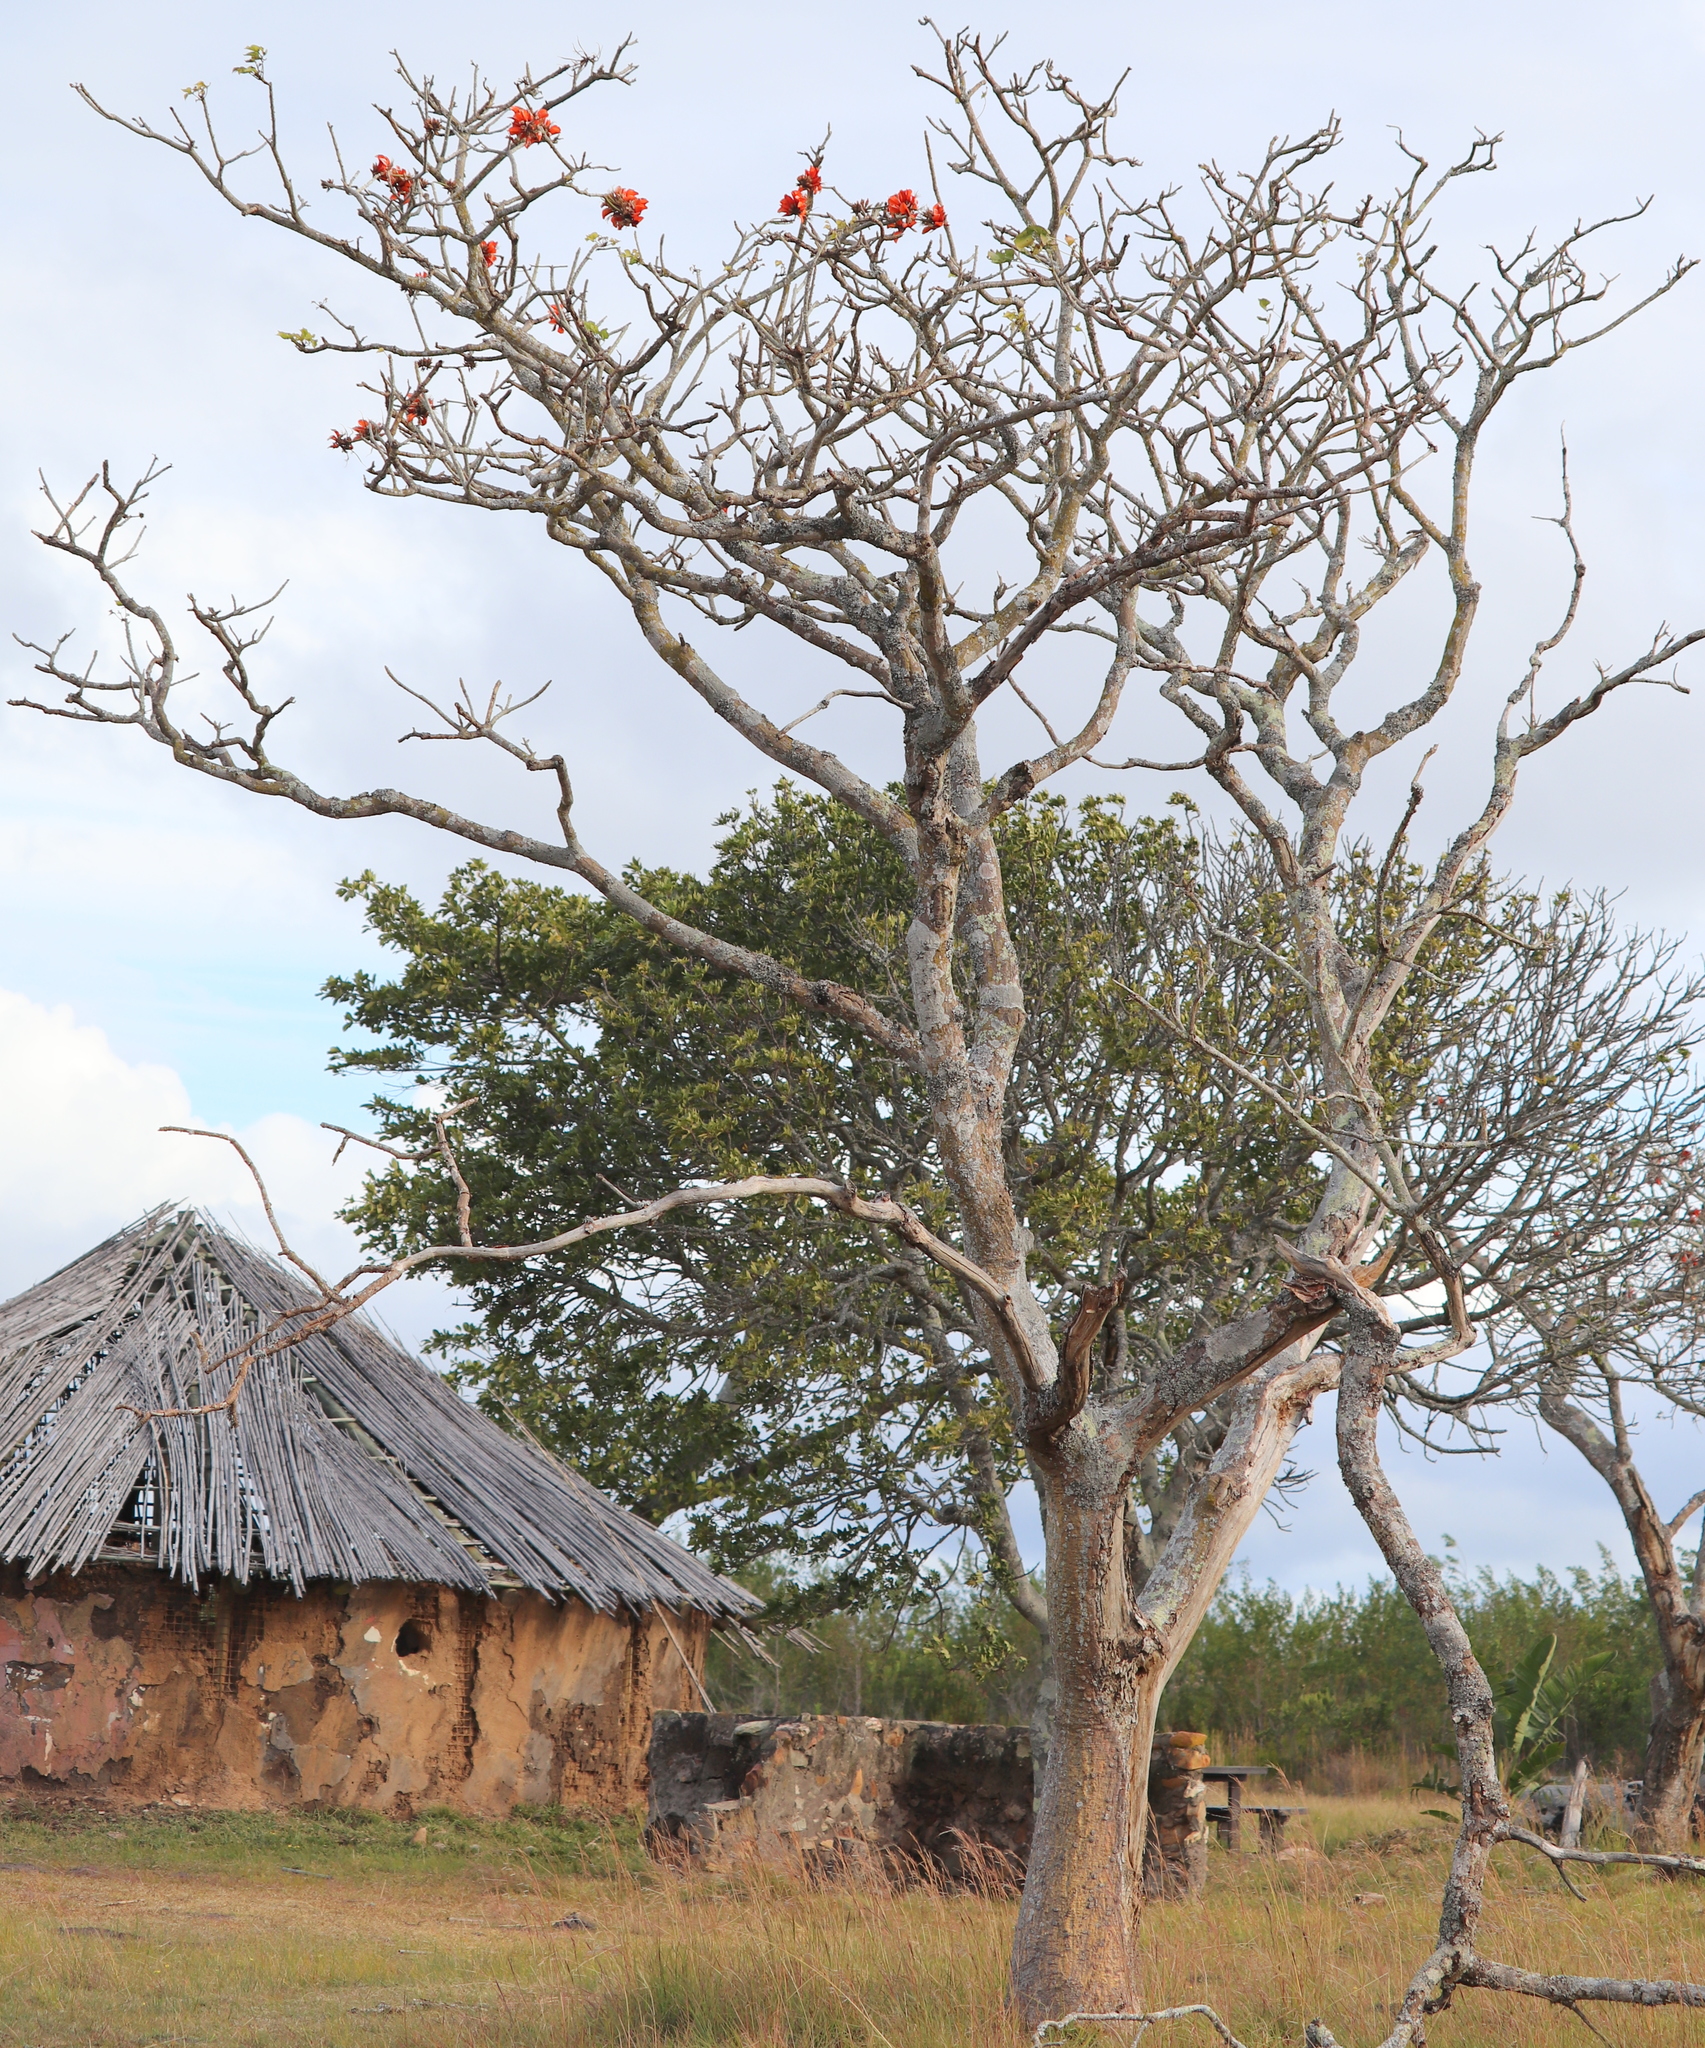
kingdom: Plantae
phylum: Tracheophyta
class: Magnoliopsida
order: Fabales
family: Fabaceae
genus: Erythrina
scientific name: Erythrina caffra
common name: Coast coral tree
